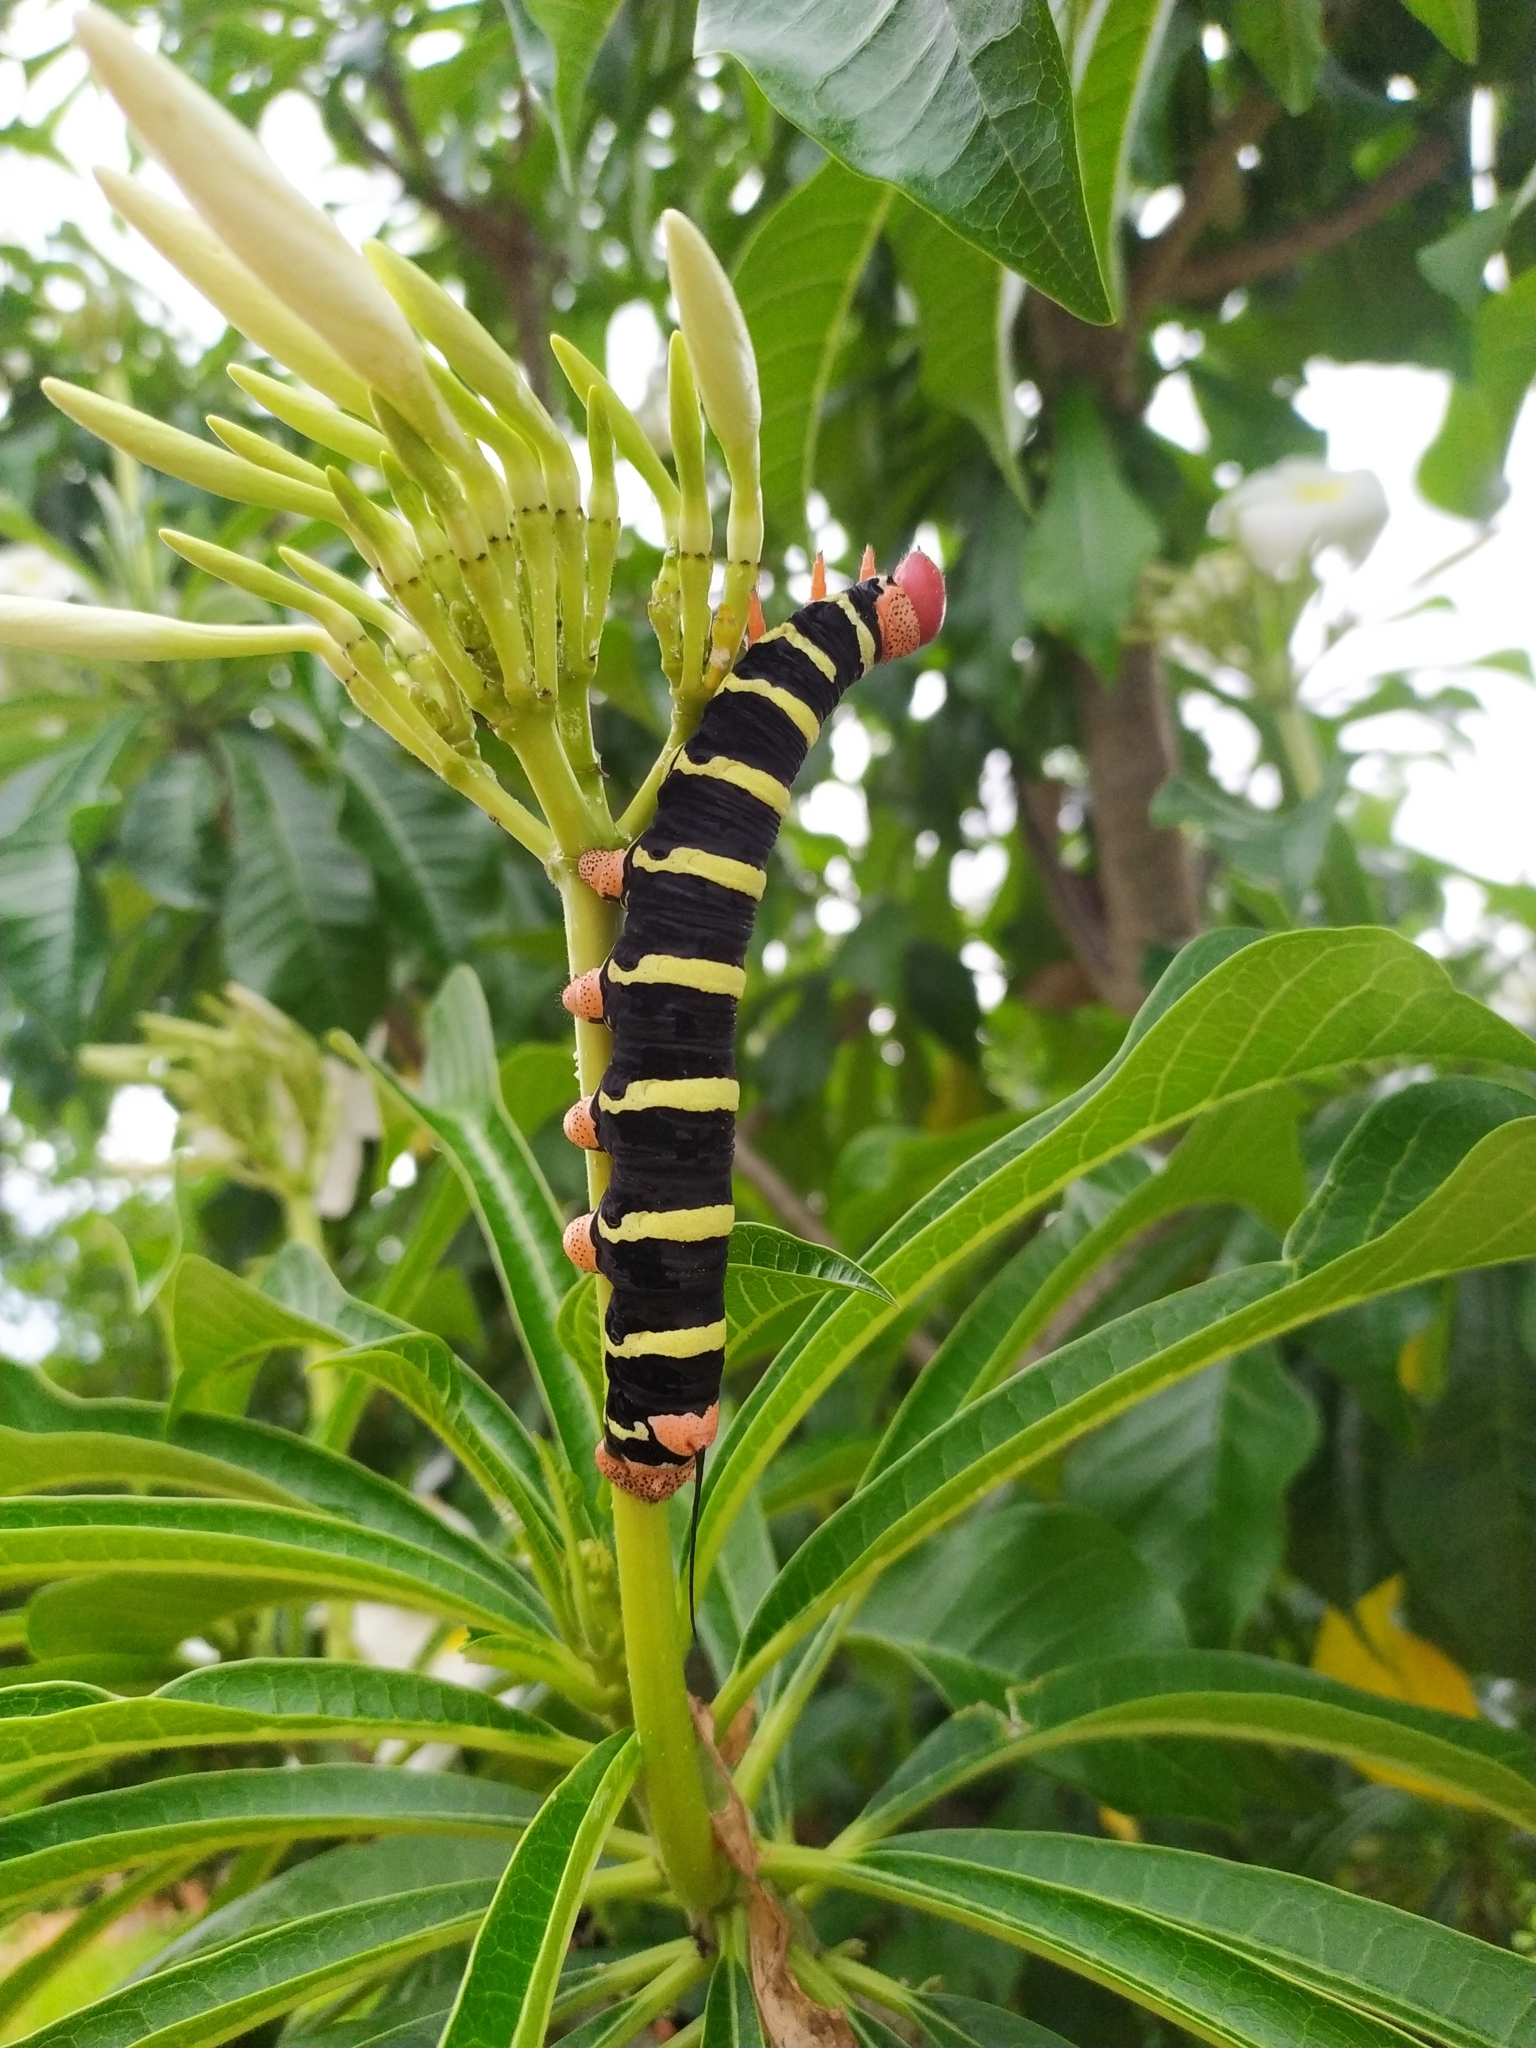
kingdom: Animalia
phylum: Arthropoda
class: Insecta
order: Lepidoptera
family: Sphingidae
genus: Pseudosphinx
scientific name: Pseudosphinx tetrio
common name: Tetrio sphinx
